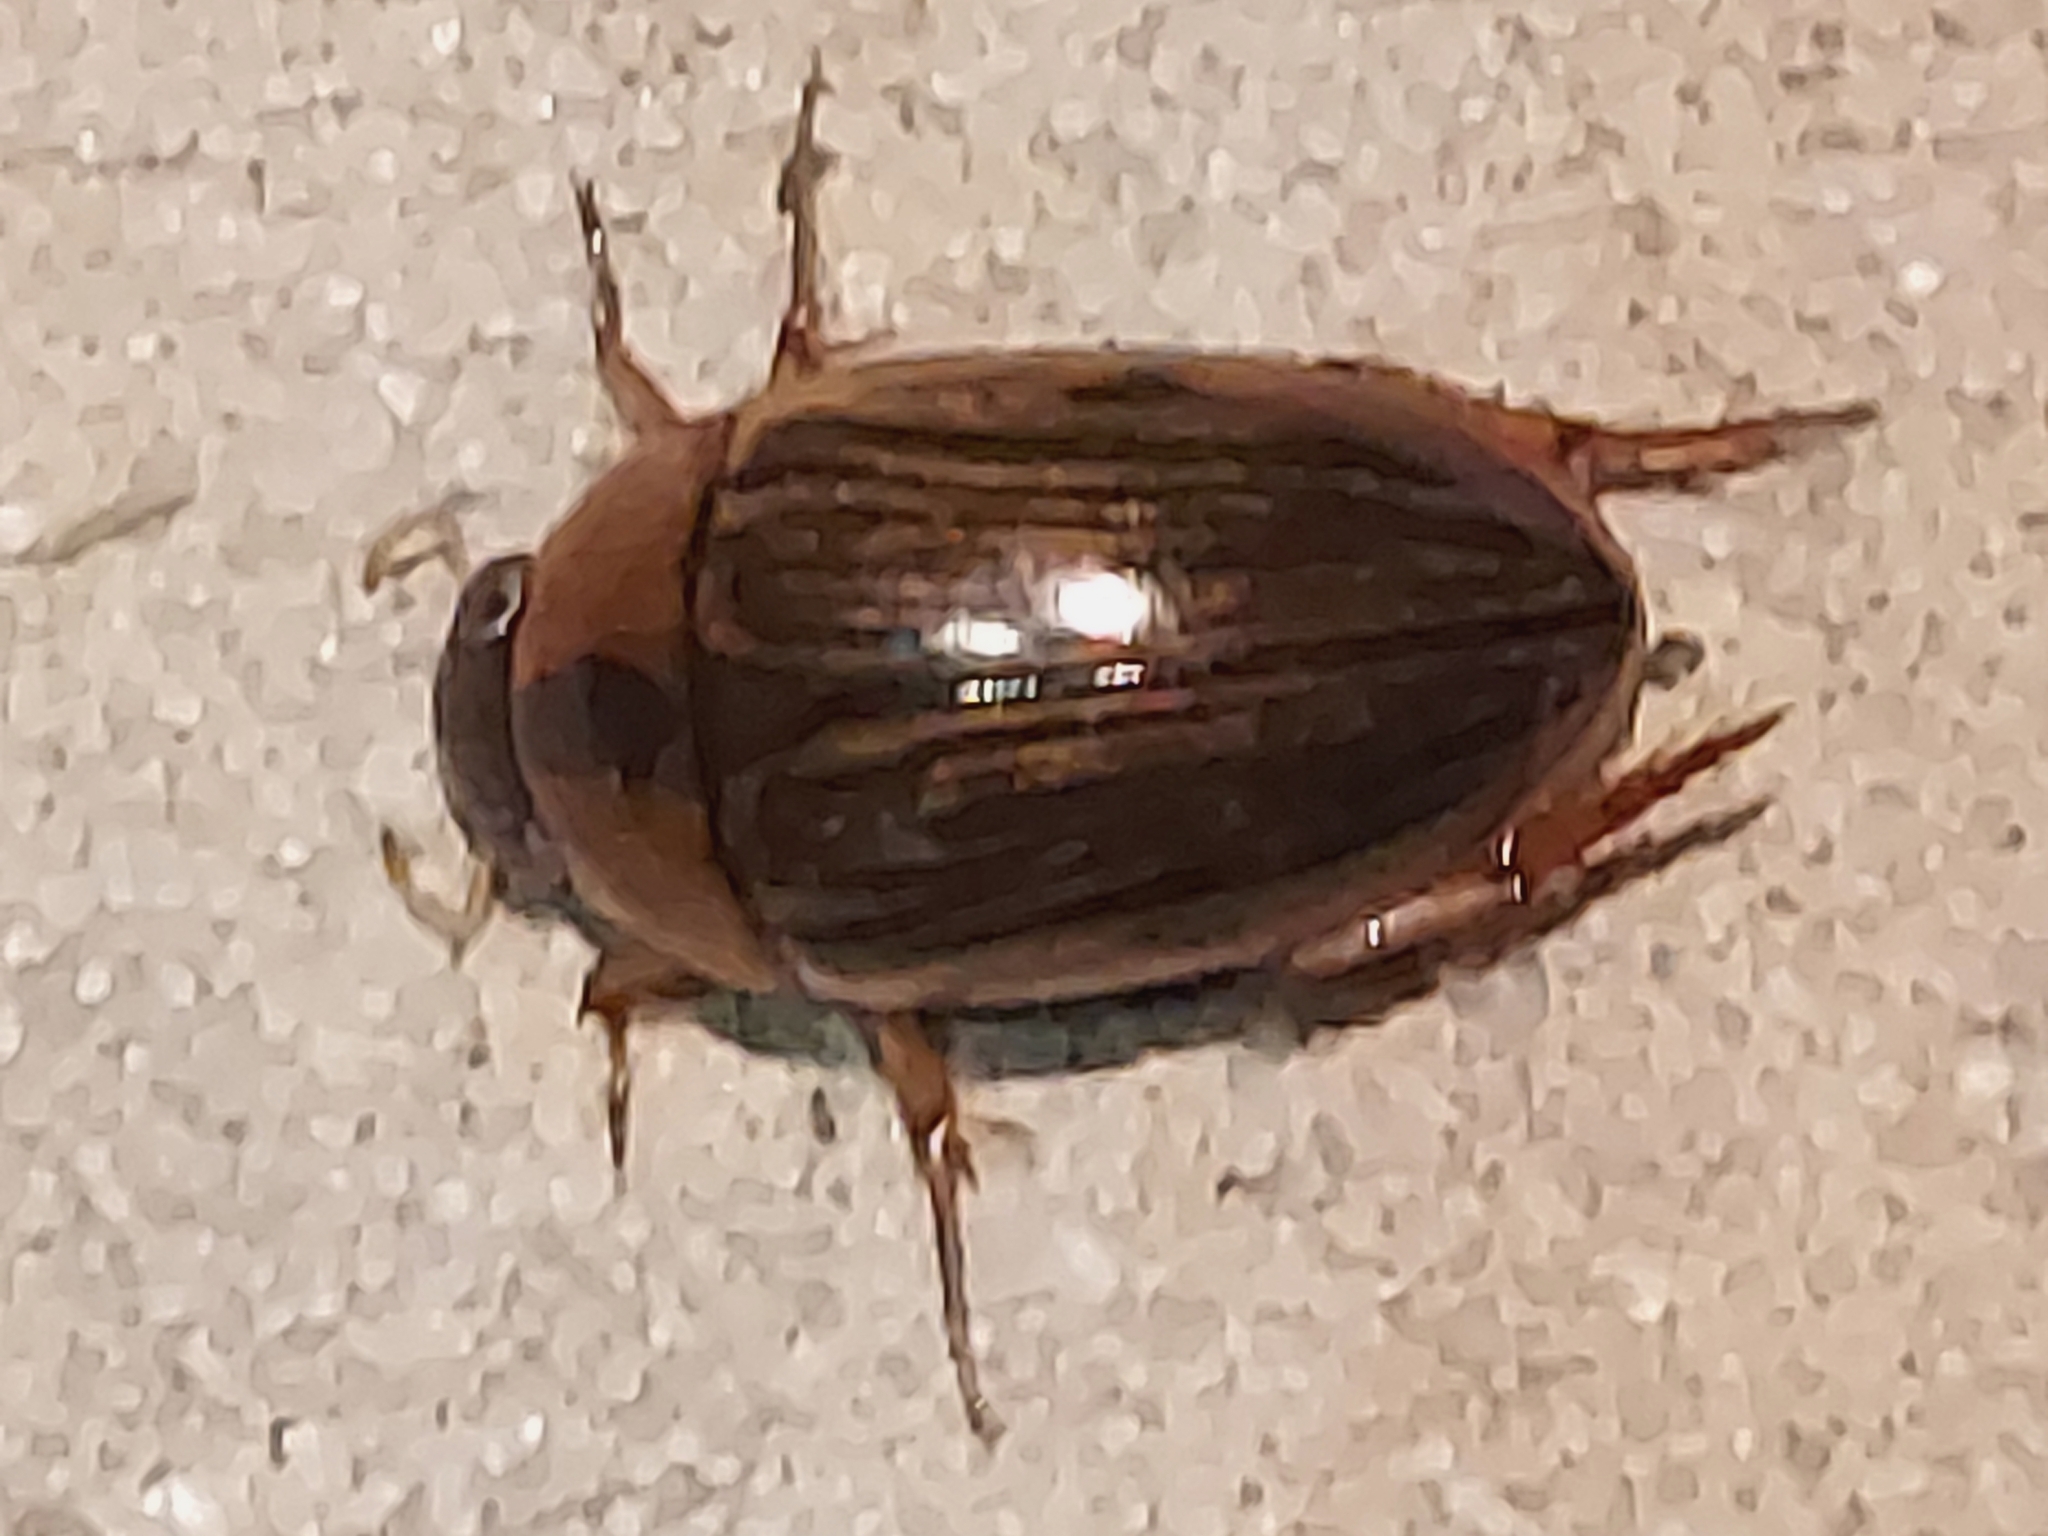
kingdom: Animalia
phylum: Arthropoda
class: Insecta
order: Coleoptera
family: Hydrophilidae
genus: Tropisternus
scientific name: Tropisternus collaris
